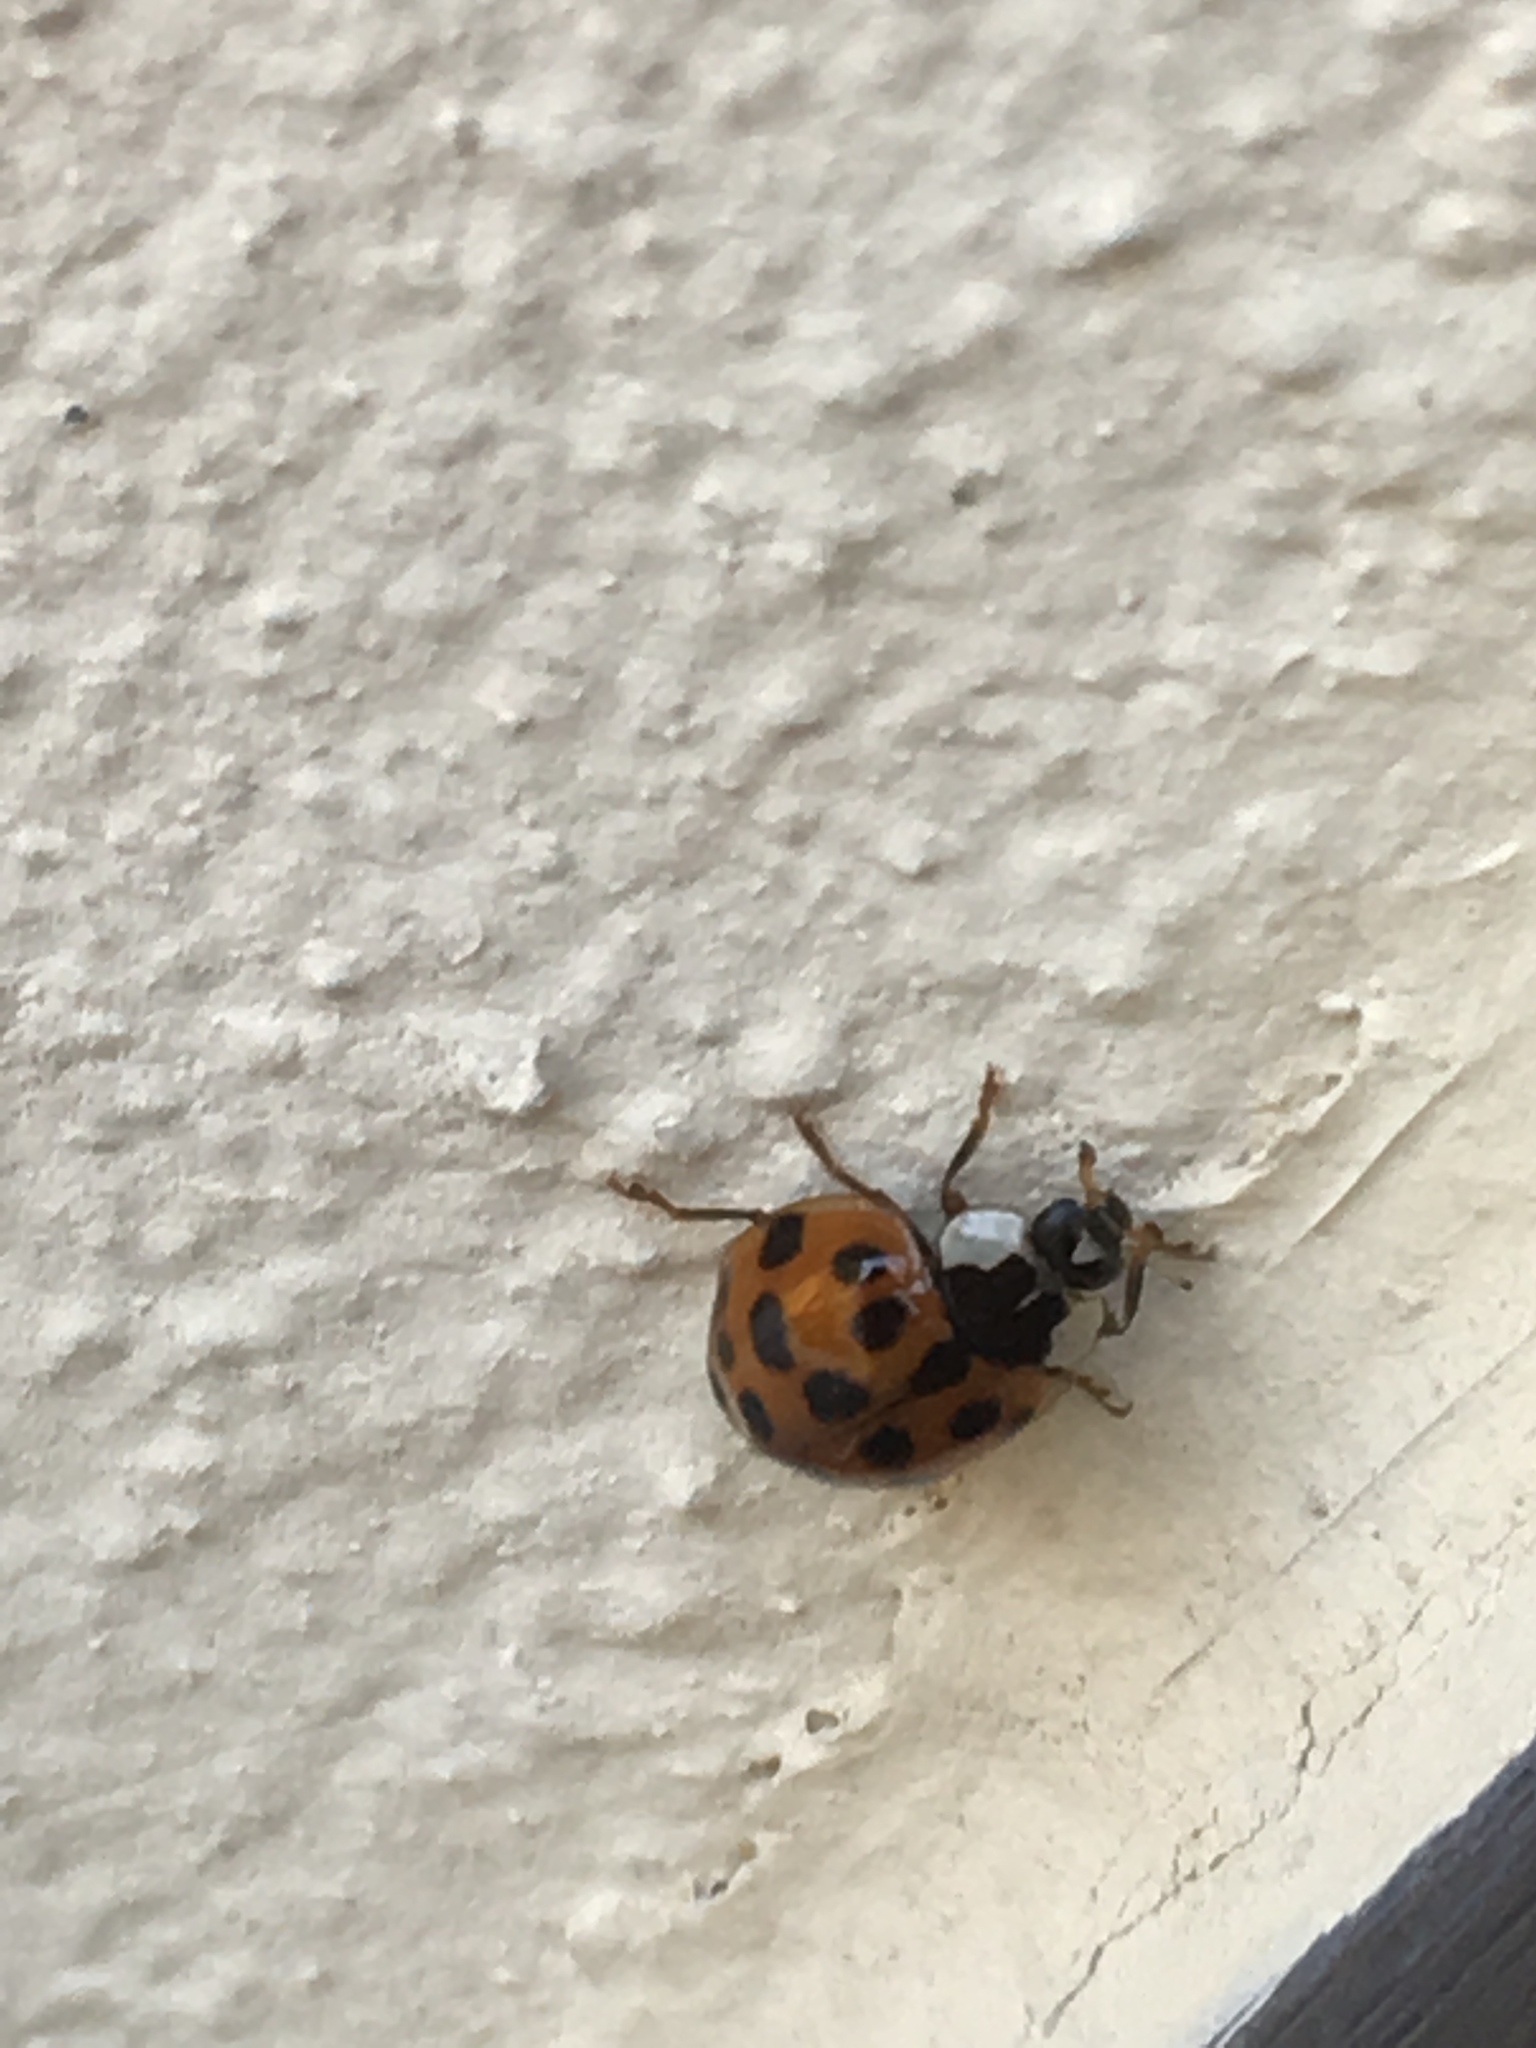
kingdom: Animalia
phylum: Arthropoda
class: Insecta
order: Coleoptera
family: Coccinellidae
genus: Harmonia
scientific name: Harmonia axyridis
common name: Harlequin ladybird
